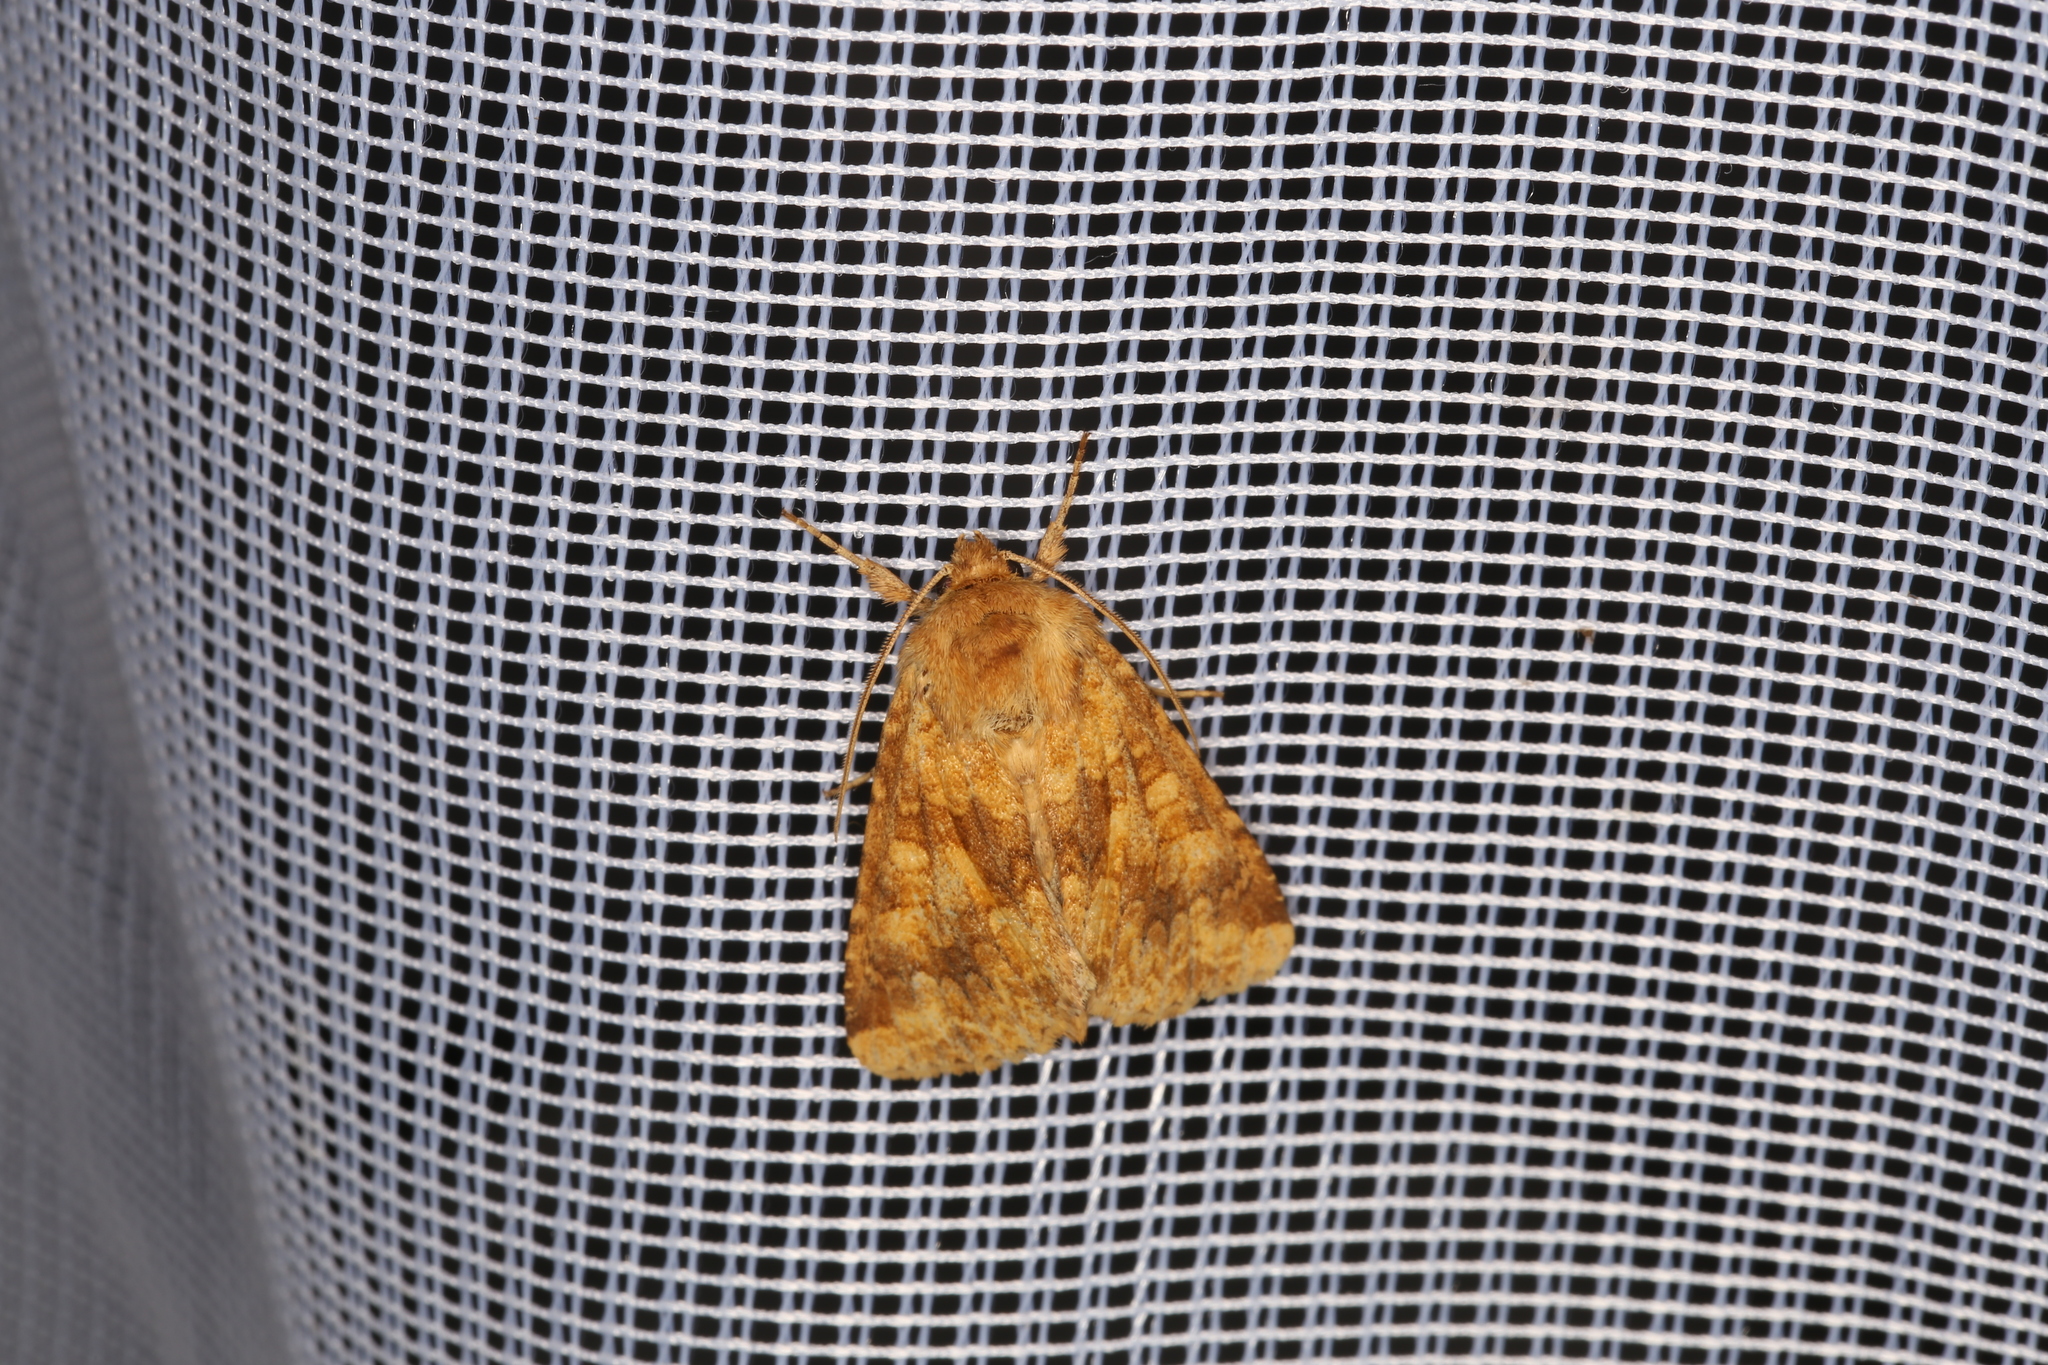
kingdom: Animalia
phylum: Arthropoda
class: Insecta
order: Lepidoptera
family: Noctuidae
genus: Conisania
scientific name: Conisania luteago
